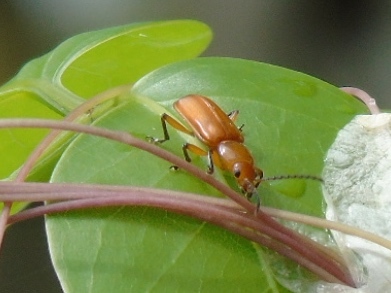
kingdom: Animalia
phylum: Arthropoda
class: Insecta
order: Coleoptera
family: Orsodacnidae
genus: Janbechynea
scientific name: Janbechynea
